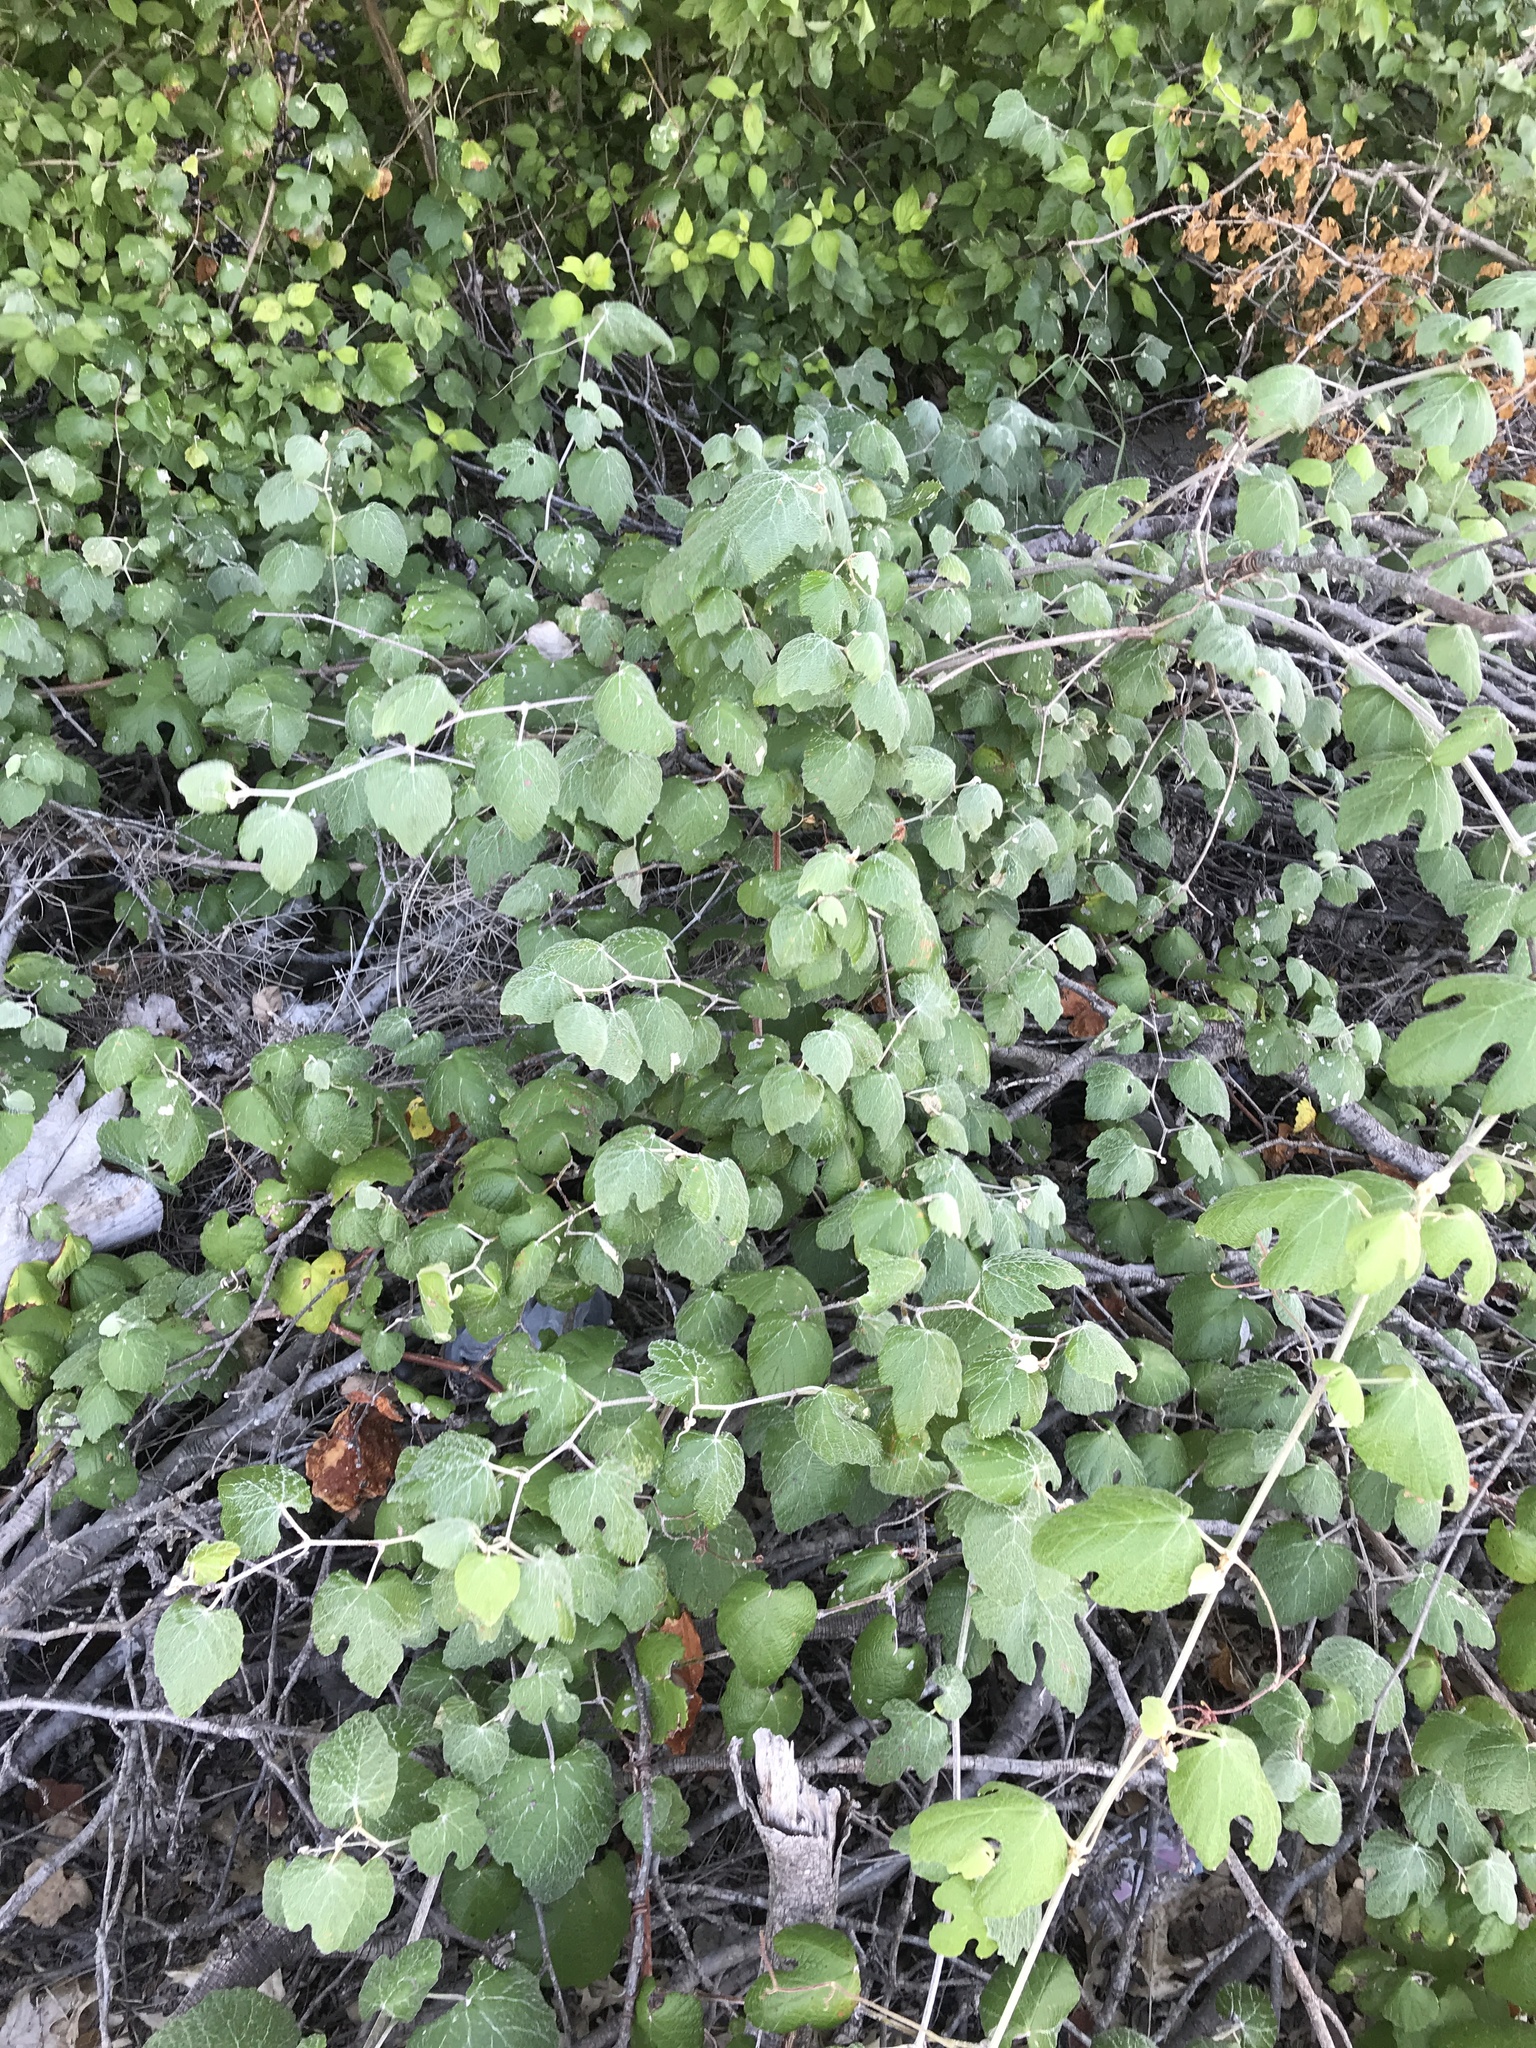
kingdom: Plantae
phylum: Tracheophyta
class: Magnoliopsida
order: Vitales
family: Vitaceae
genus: Vitis
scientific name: Vitis mustangensis
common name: Mustang grape
